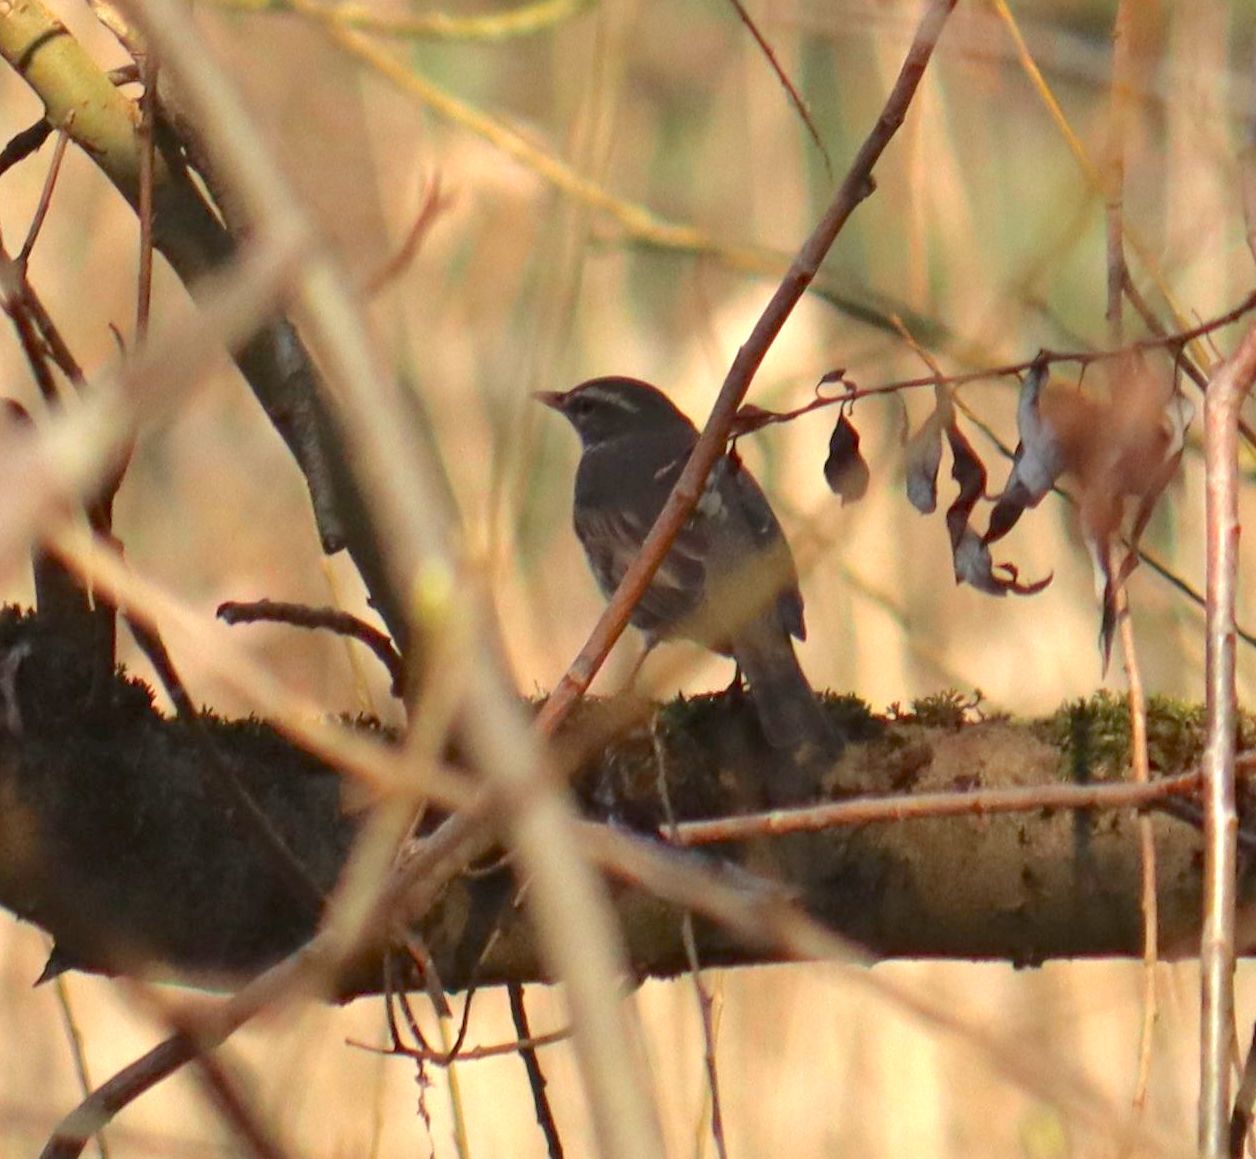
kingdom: Animalia
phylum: Chordata
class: Aves
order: Passeriformes
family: Turdidae
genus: Turdus
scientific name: Turdus iliacus
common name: Redwing
